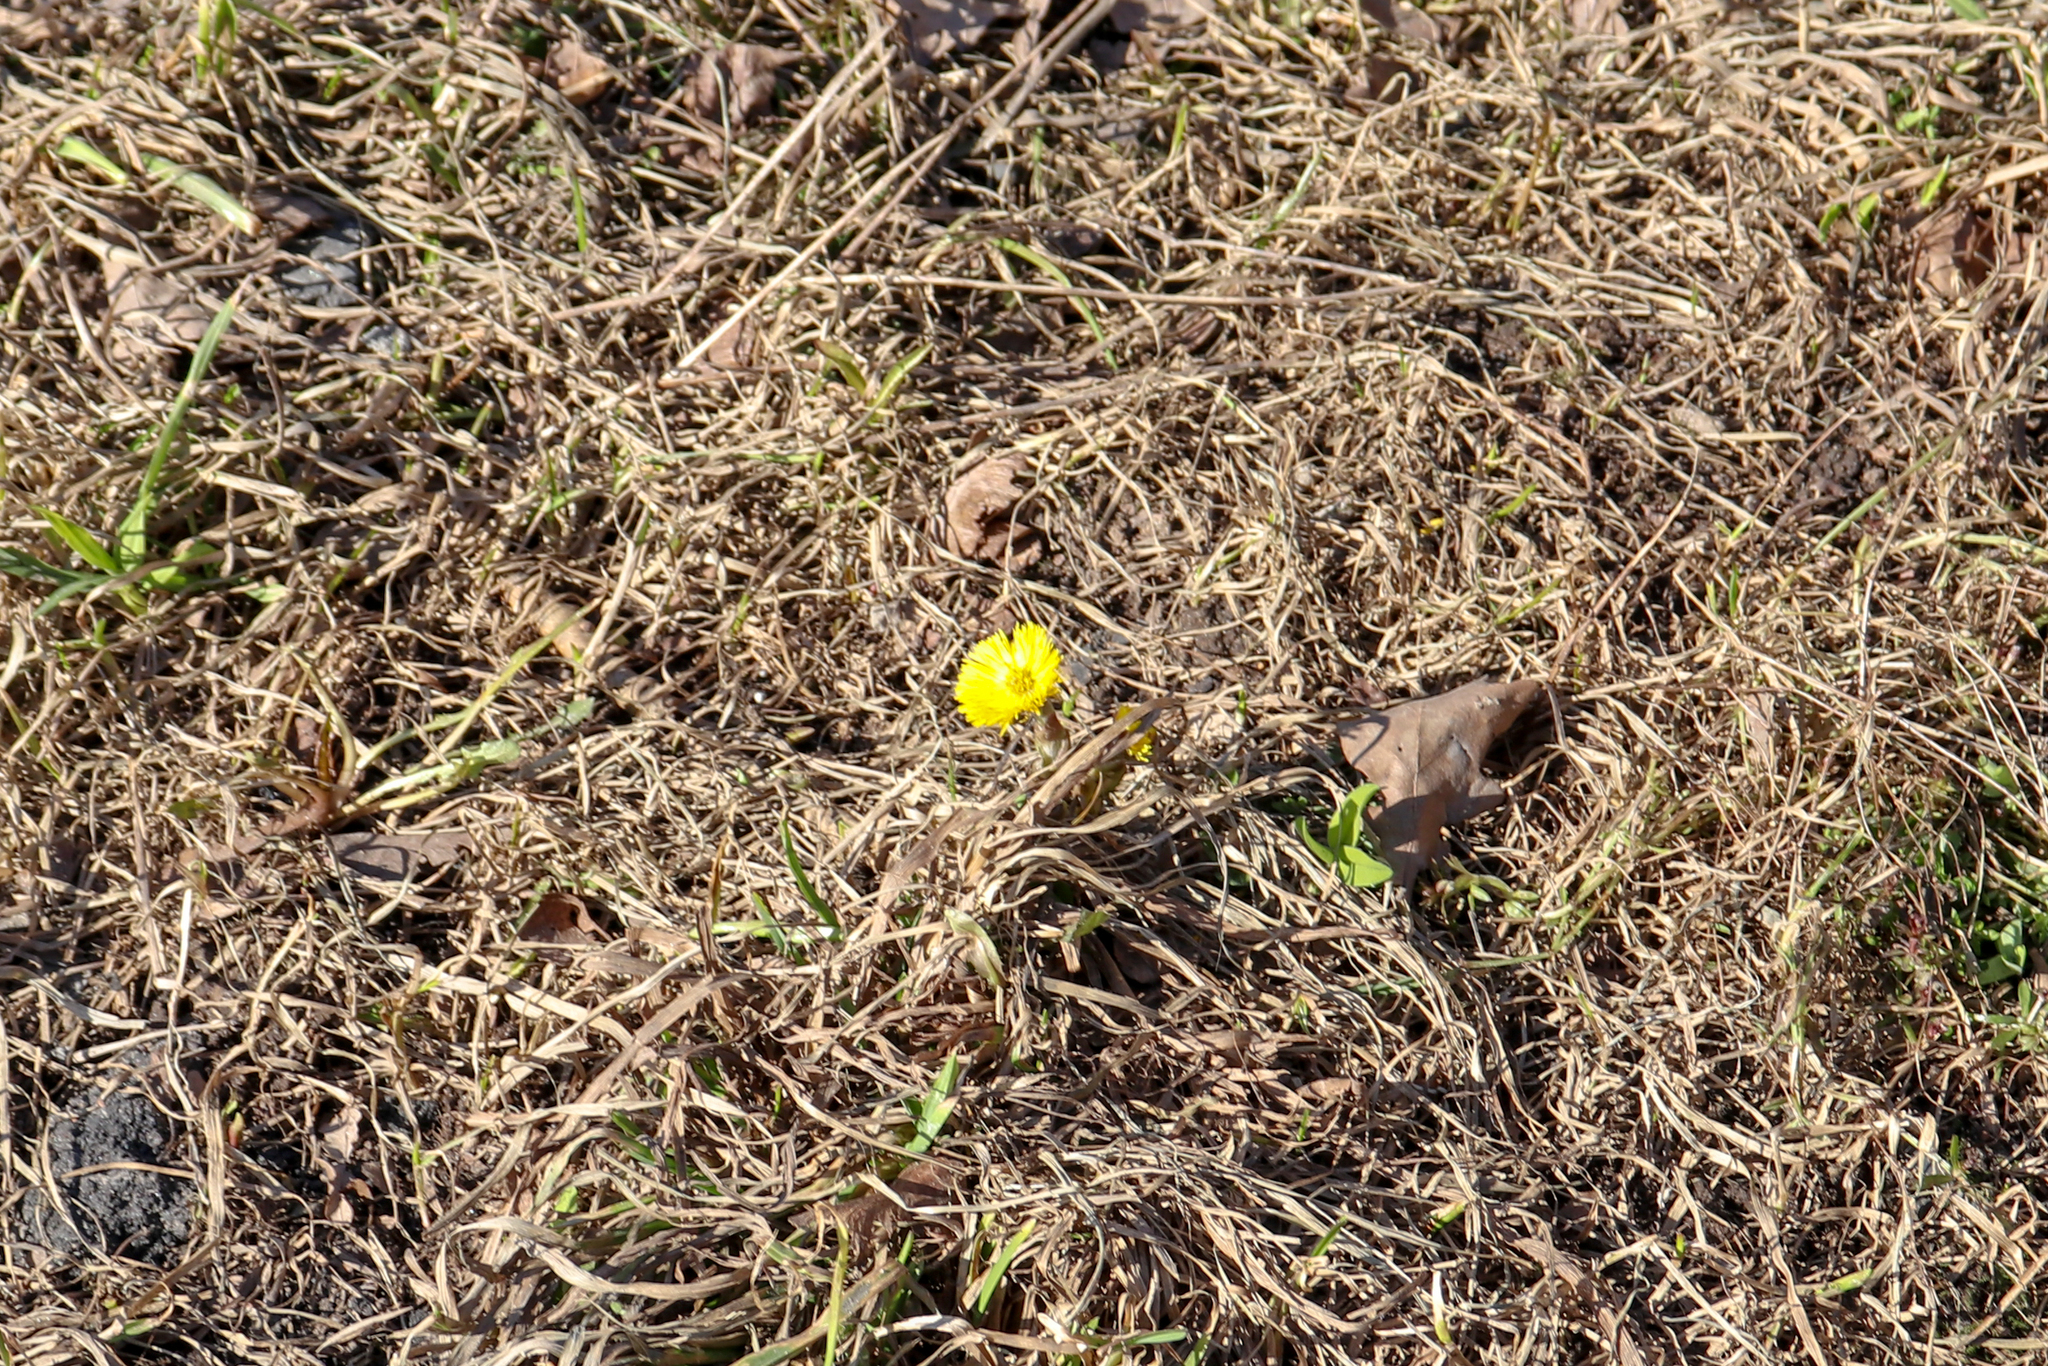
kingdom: Plantae
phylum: Tracheophyta
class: Magnoliopsida
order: Asterales
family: Asteraceae
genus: Tussilago
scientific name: Tussilago farfara
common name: Coltsfoot
